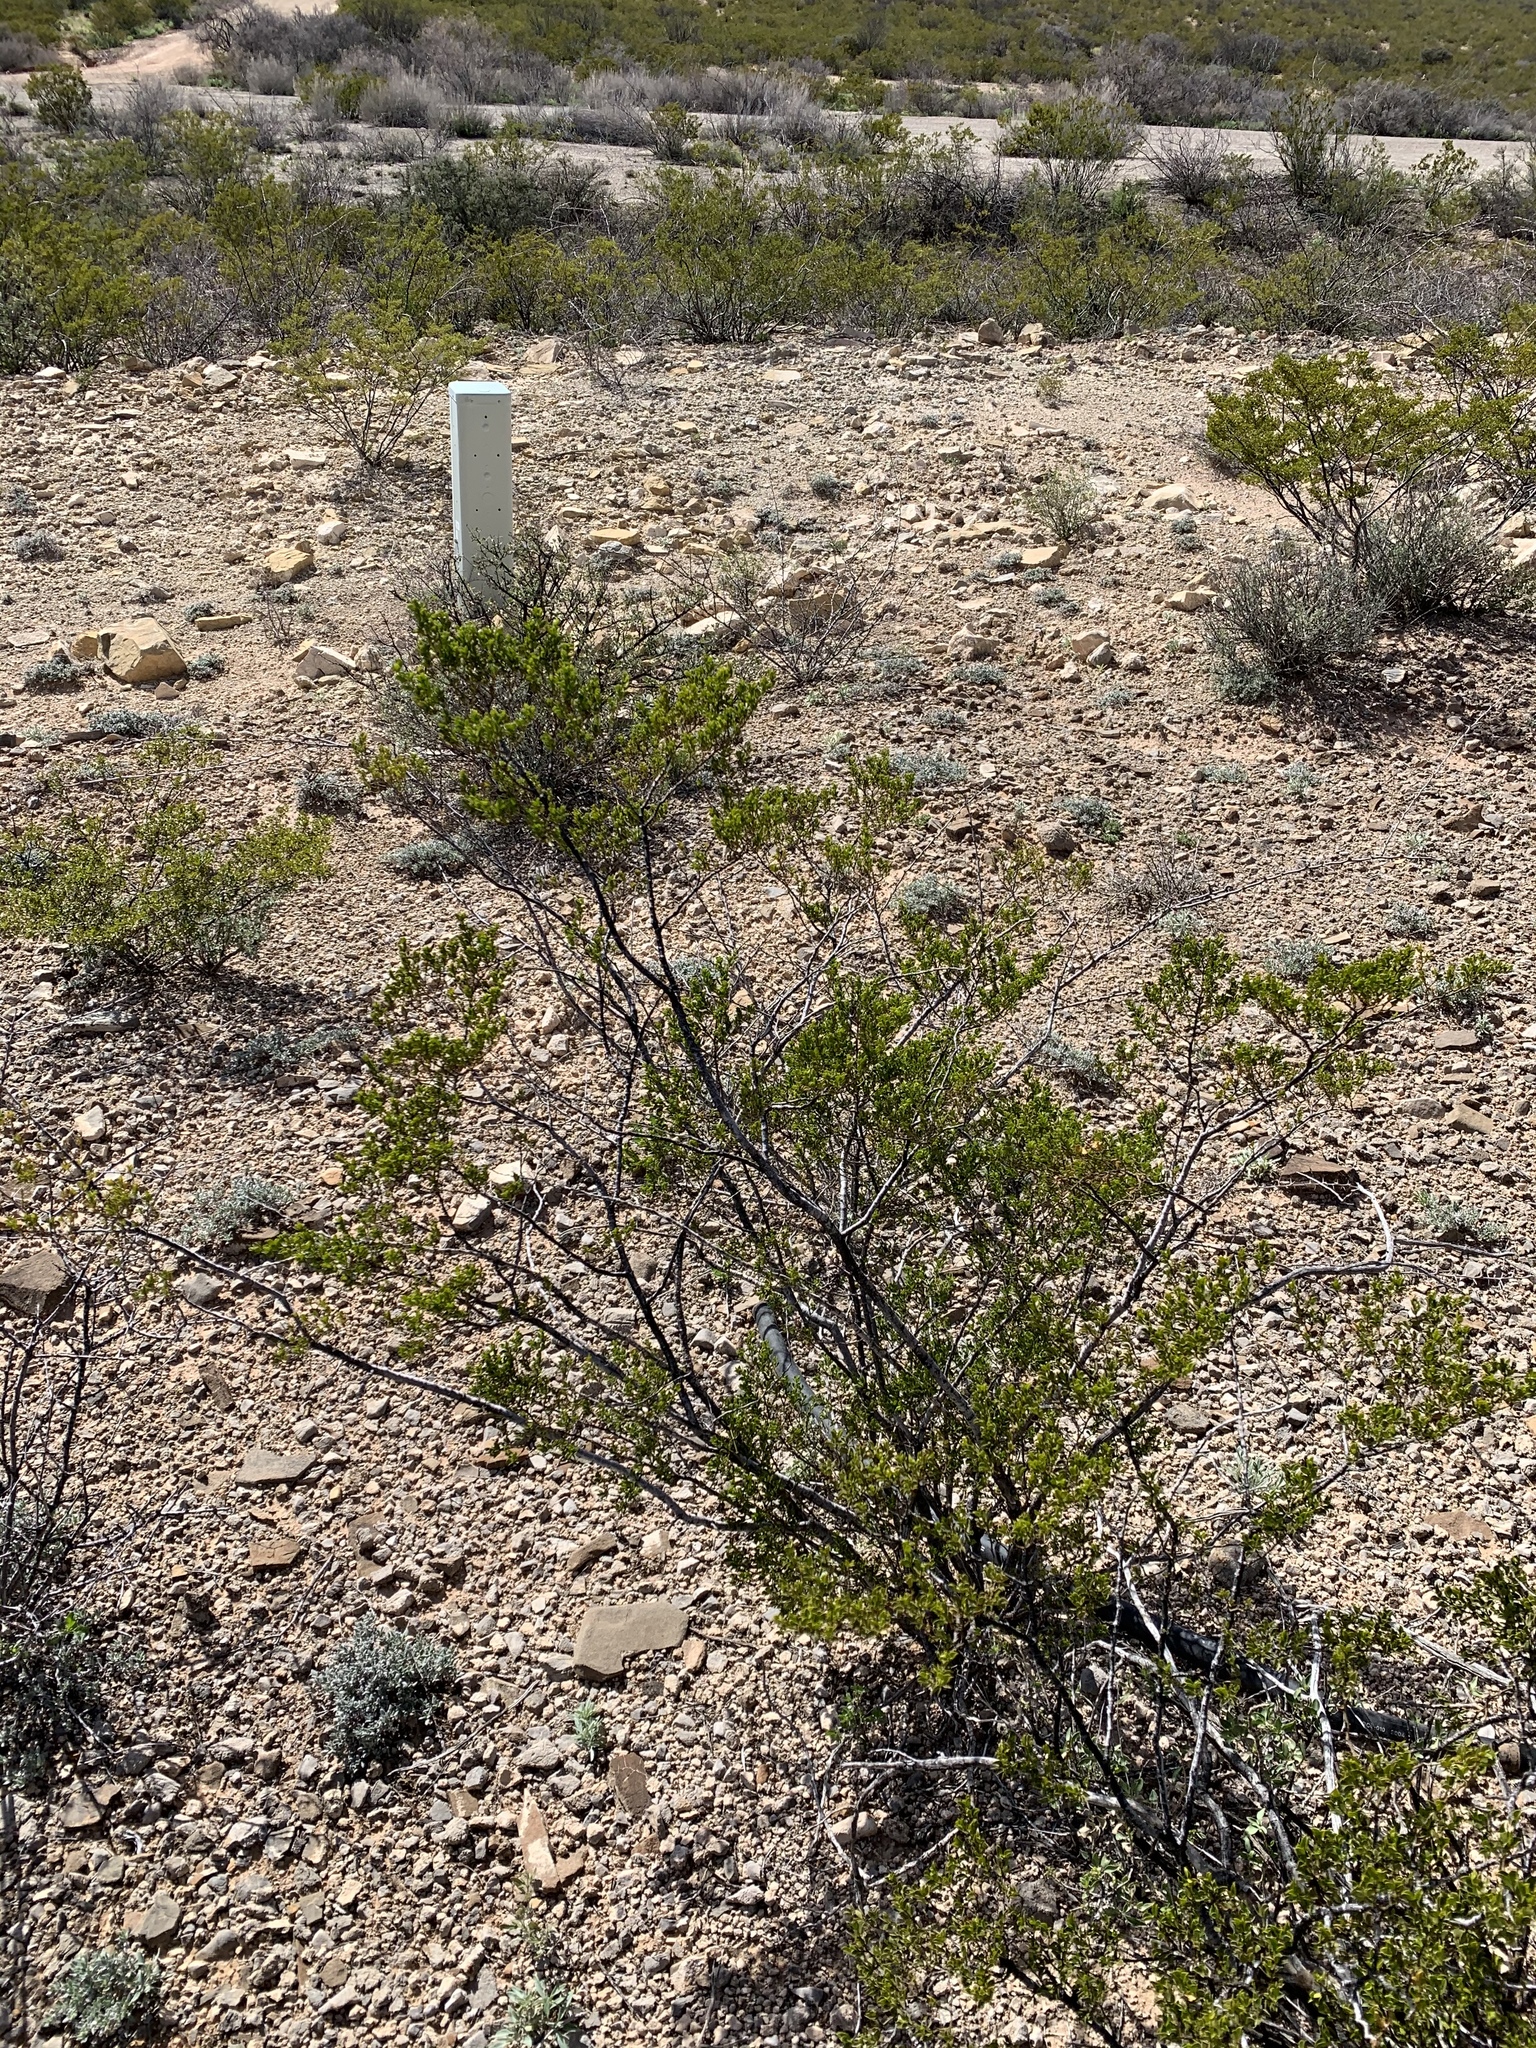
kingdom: Plantae
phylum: Tracheophyta
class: Magnoliopsida
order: Zygophyllales
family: Zygophyllaceae
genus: Larrea
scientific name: Larrea tridentata
